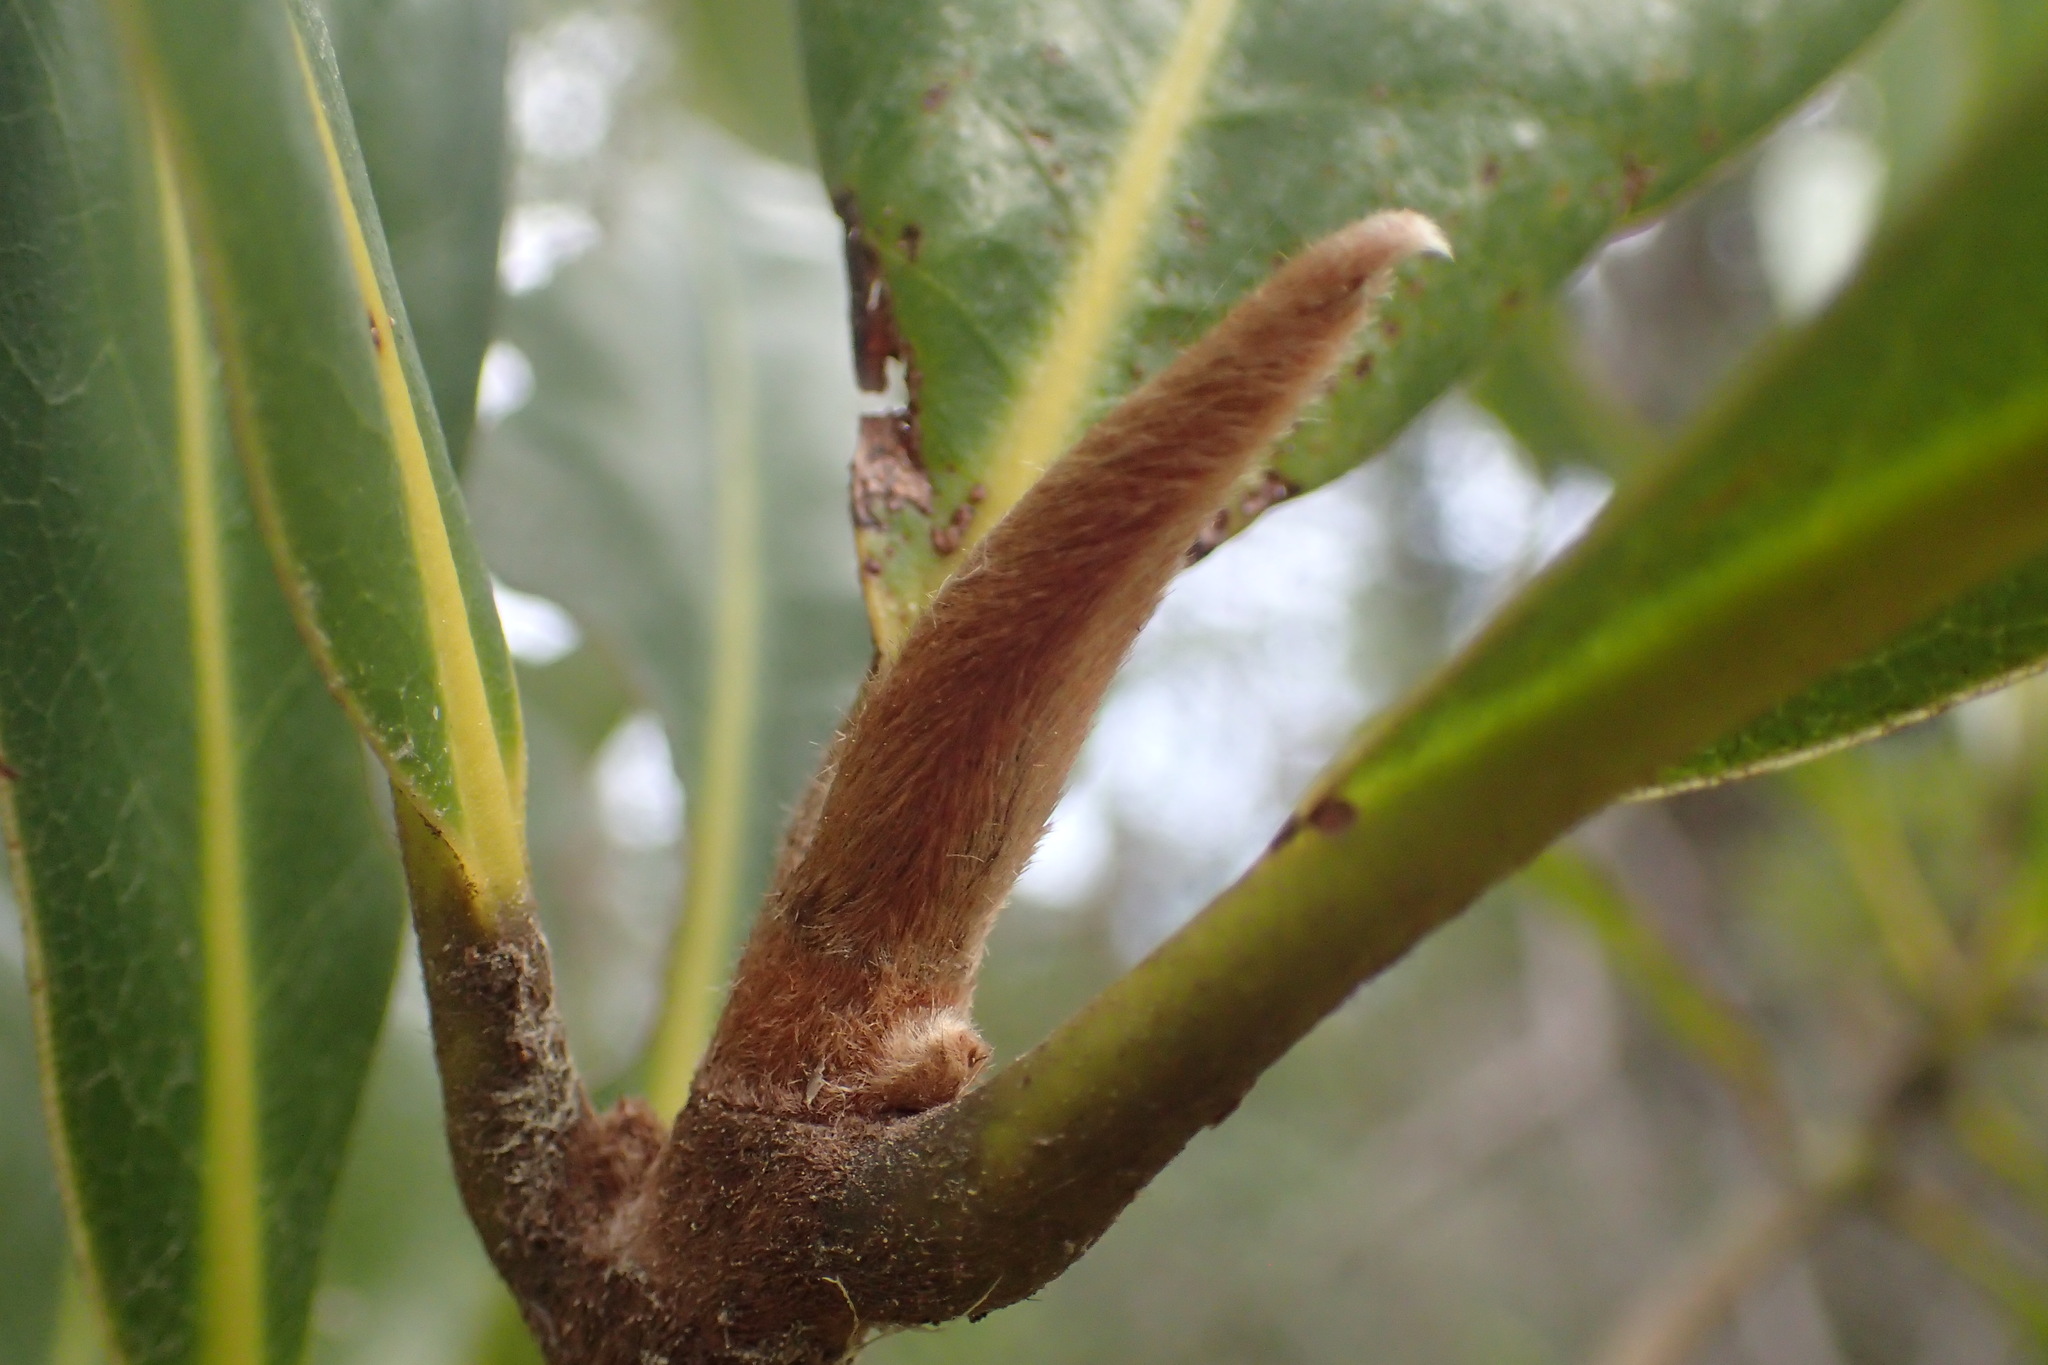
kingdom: Plantae
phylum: Tracheophyta
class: Magnoliopsida
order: Magnoliales
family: Magnoliaceae
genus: Magnolia
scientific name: Magnolia grandiflora
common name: Southern magnolia
